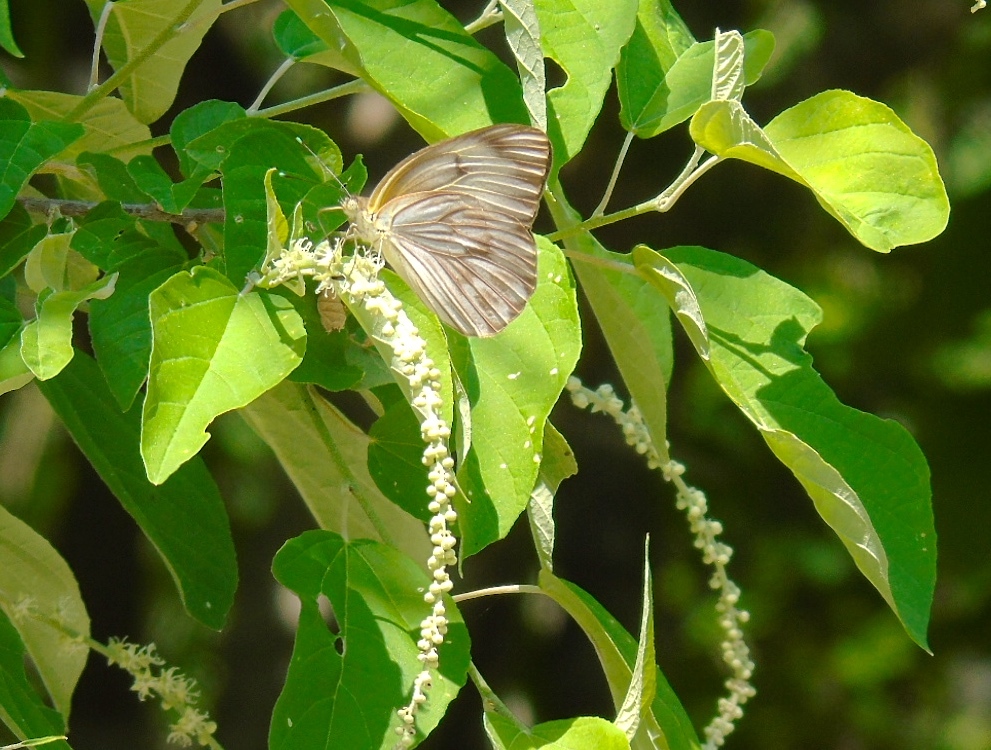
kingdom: Animalia
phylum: Arthropoda
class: Insecta
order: Lepidoptera
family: Pieridae
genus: Ascia
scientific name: Ascia monuste
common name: Great southern white
